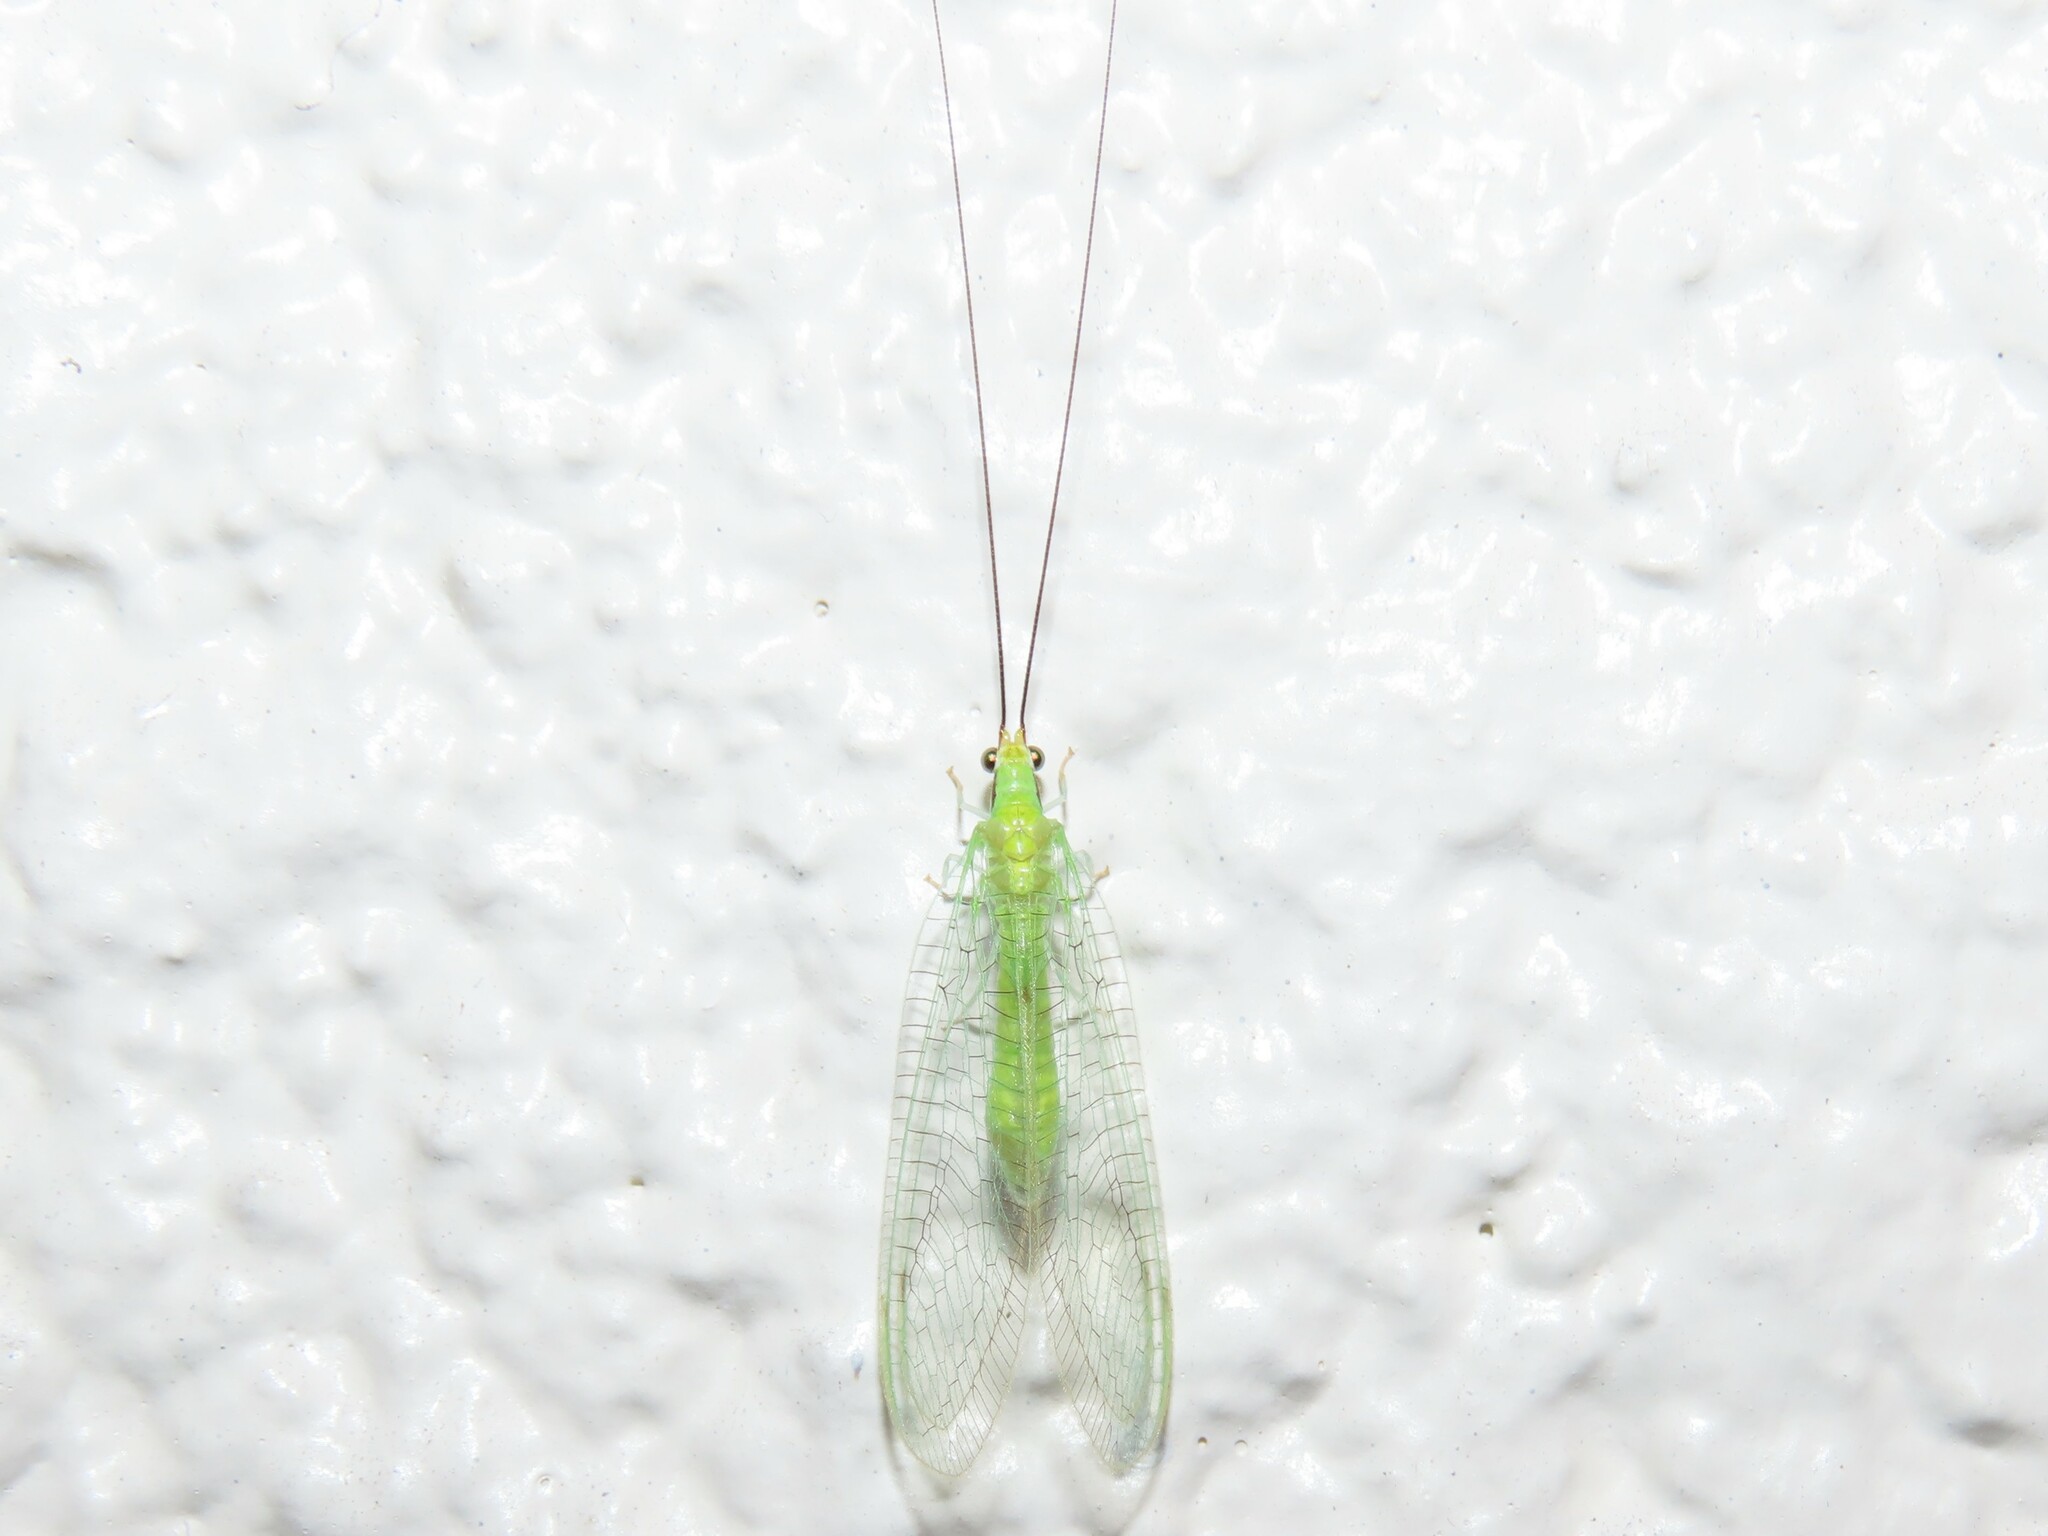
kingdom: Animalia
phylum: Arthropoda
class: Insecta
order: Neuroptera
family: Chrysopidae
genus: Leucochrysa
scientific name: Leucochrysa pavida
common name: Lichen-carrying green lacewing
